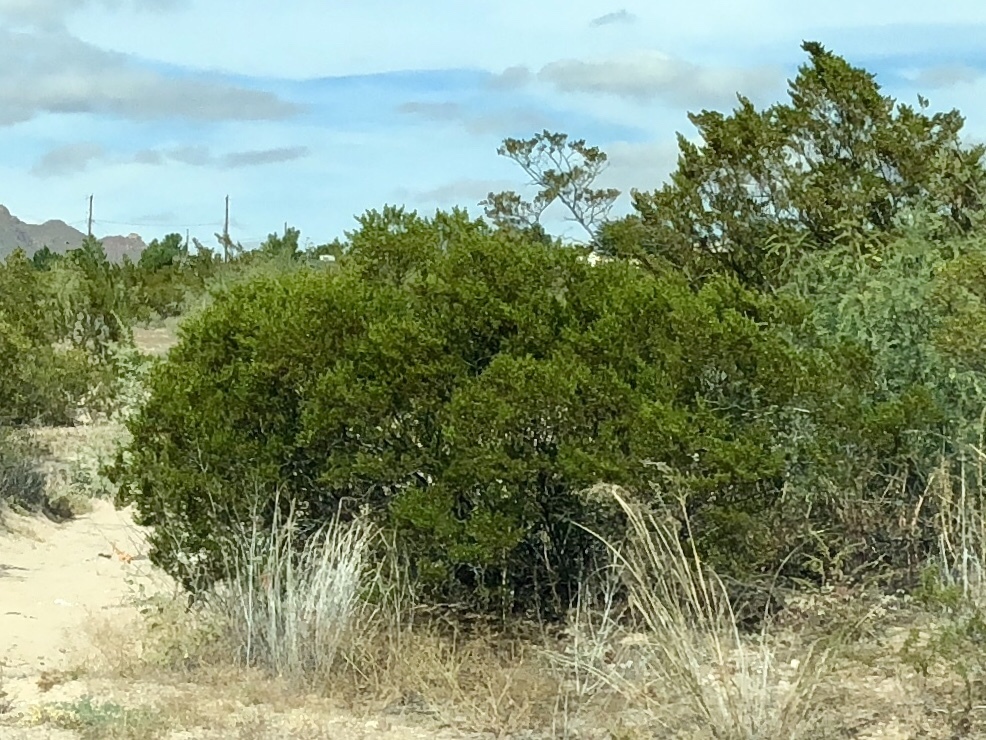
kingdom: Plantae
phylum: Tracheophyta
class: Magnoliopsida
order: Zygophyllales
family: Zygophyllaceae
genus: Larrea
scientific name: Larrea tridentata
